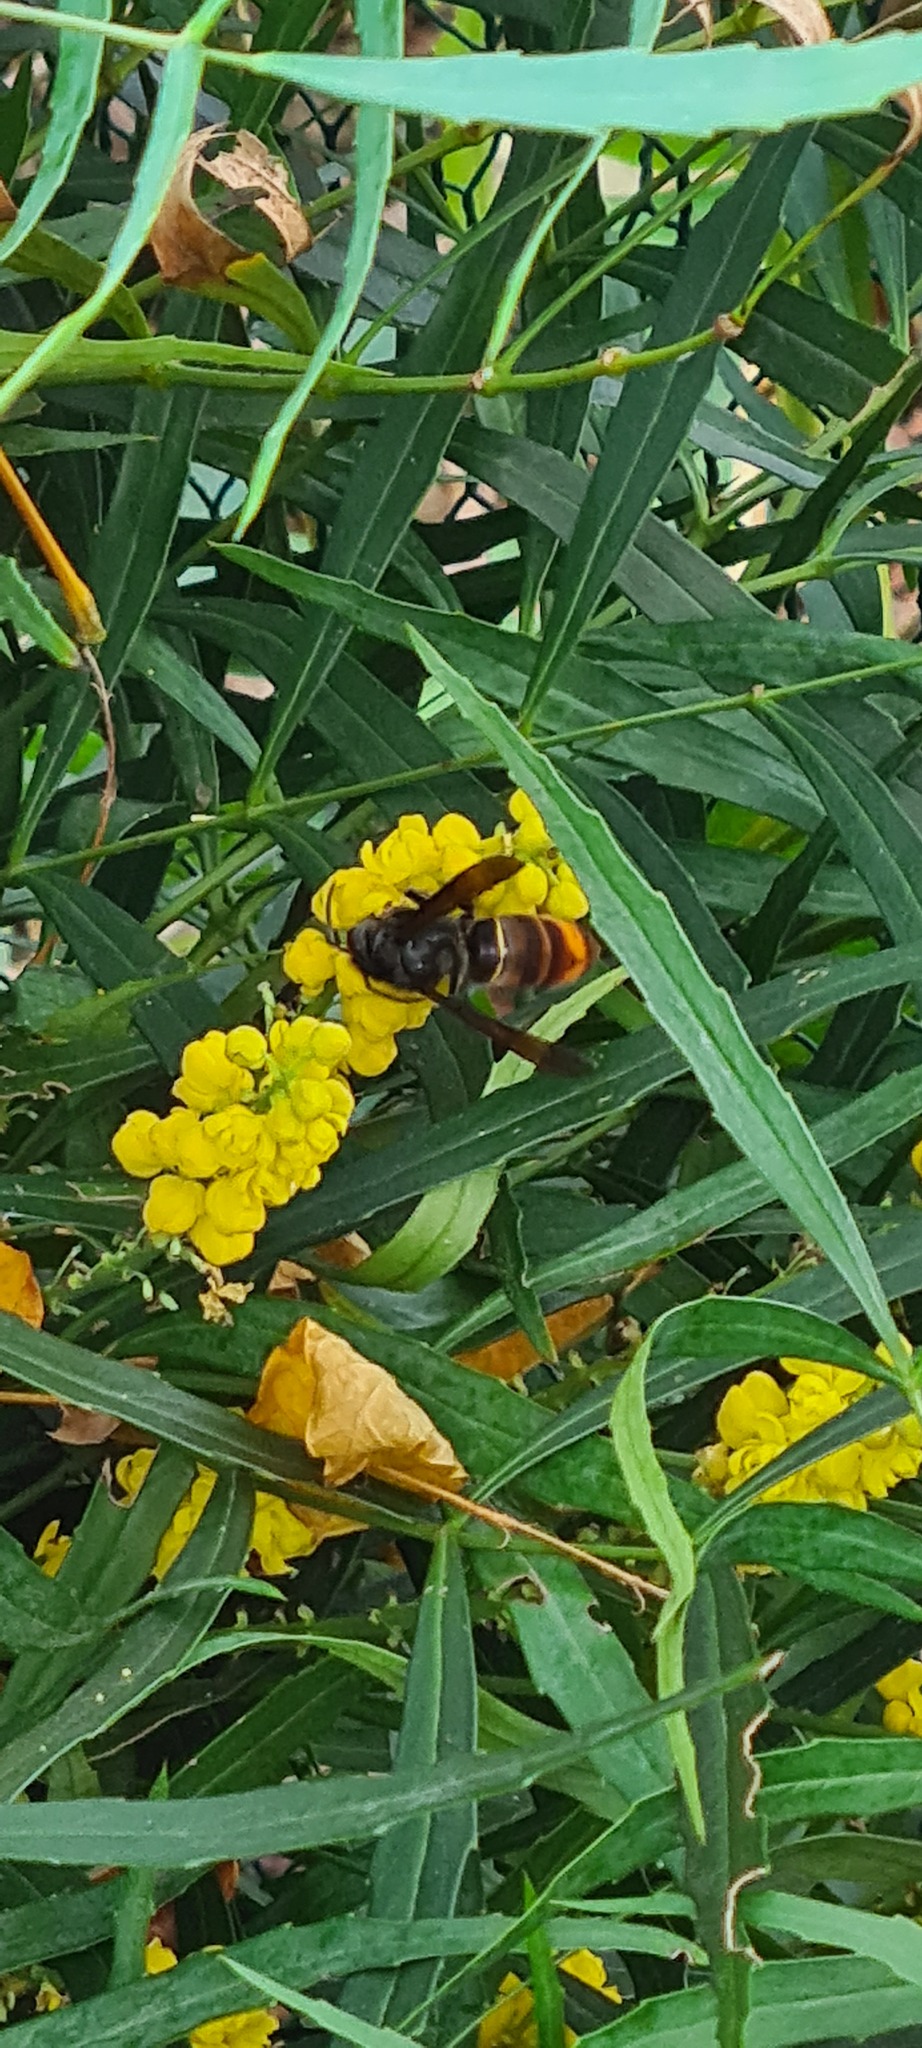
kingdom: Animalia
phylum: Arthropoda
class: Insecta
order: Hymenoptera
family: Vespidae
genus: Vespa
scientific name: Vespa velutina
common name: Asian hornet
